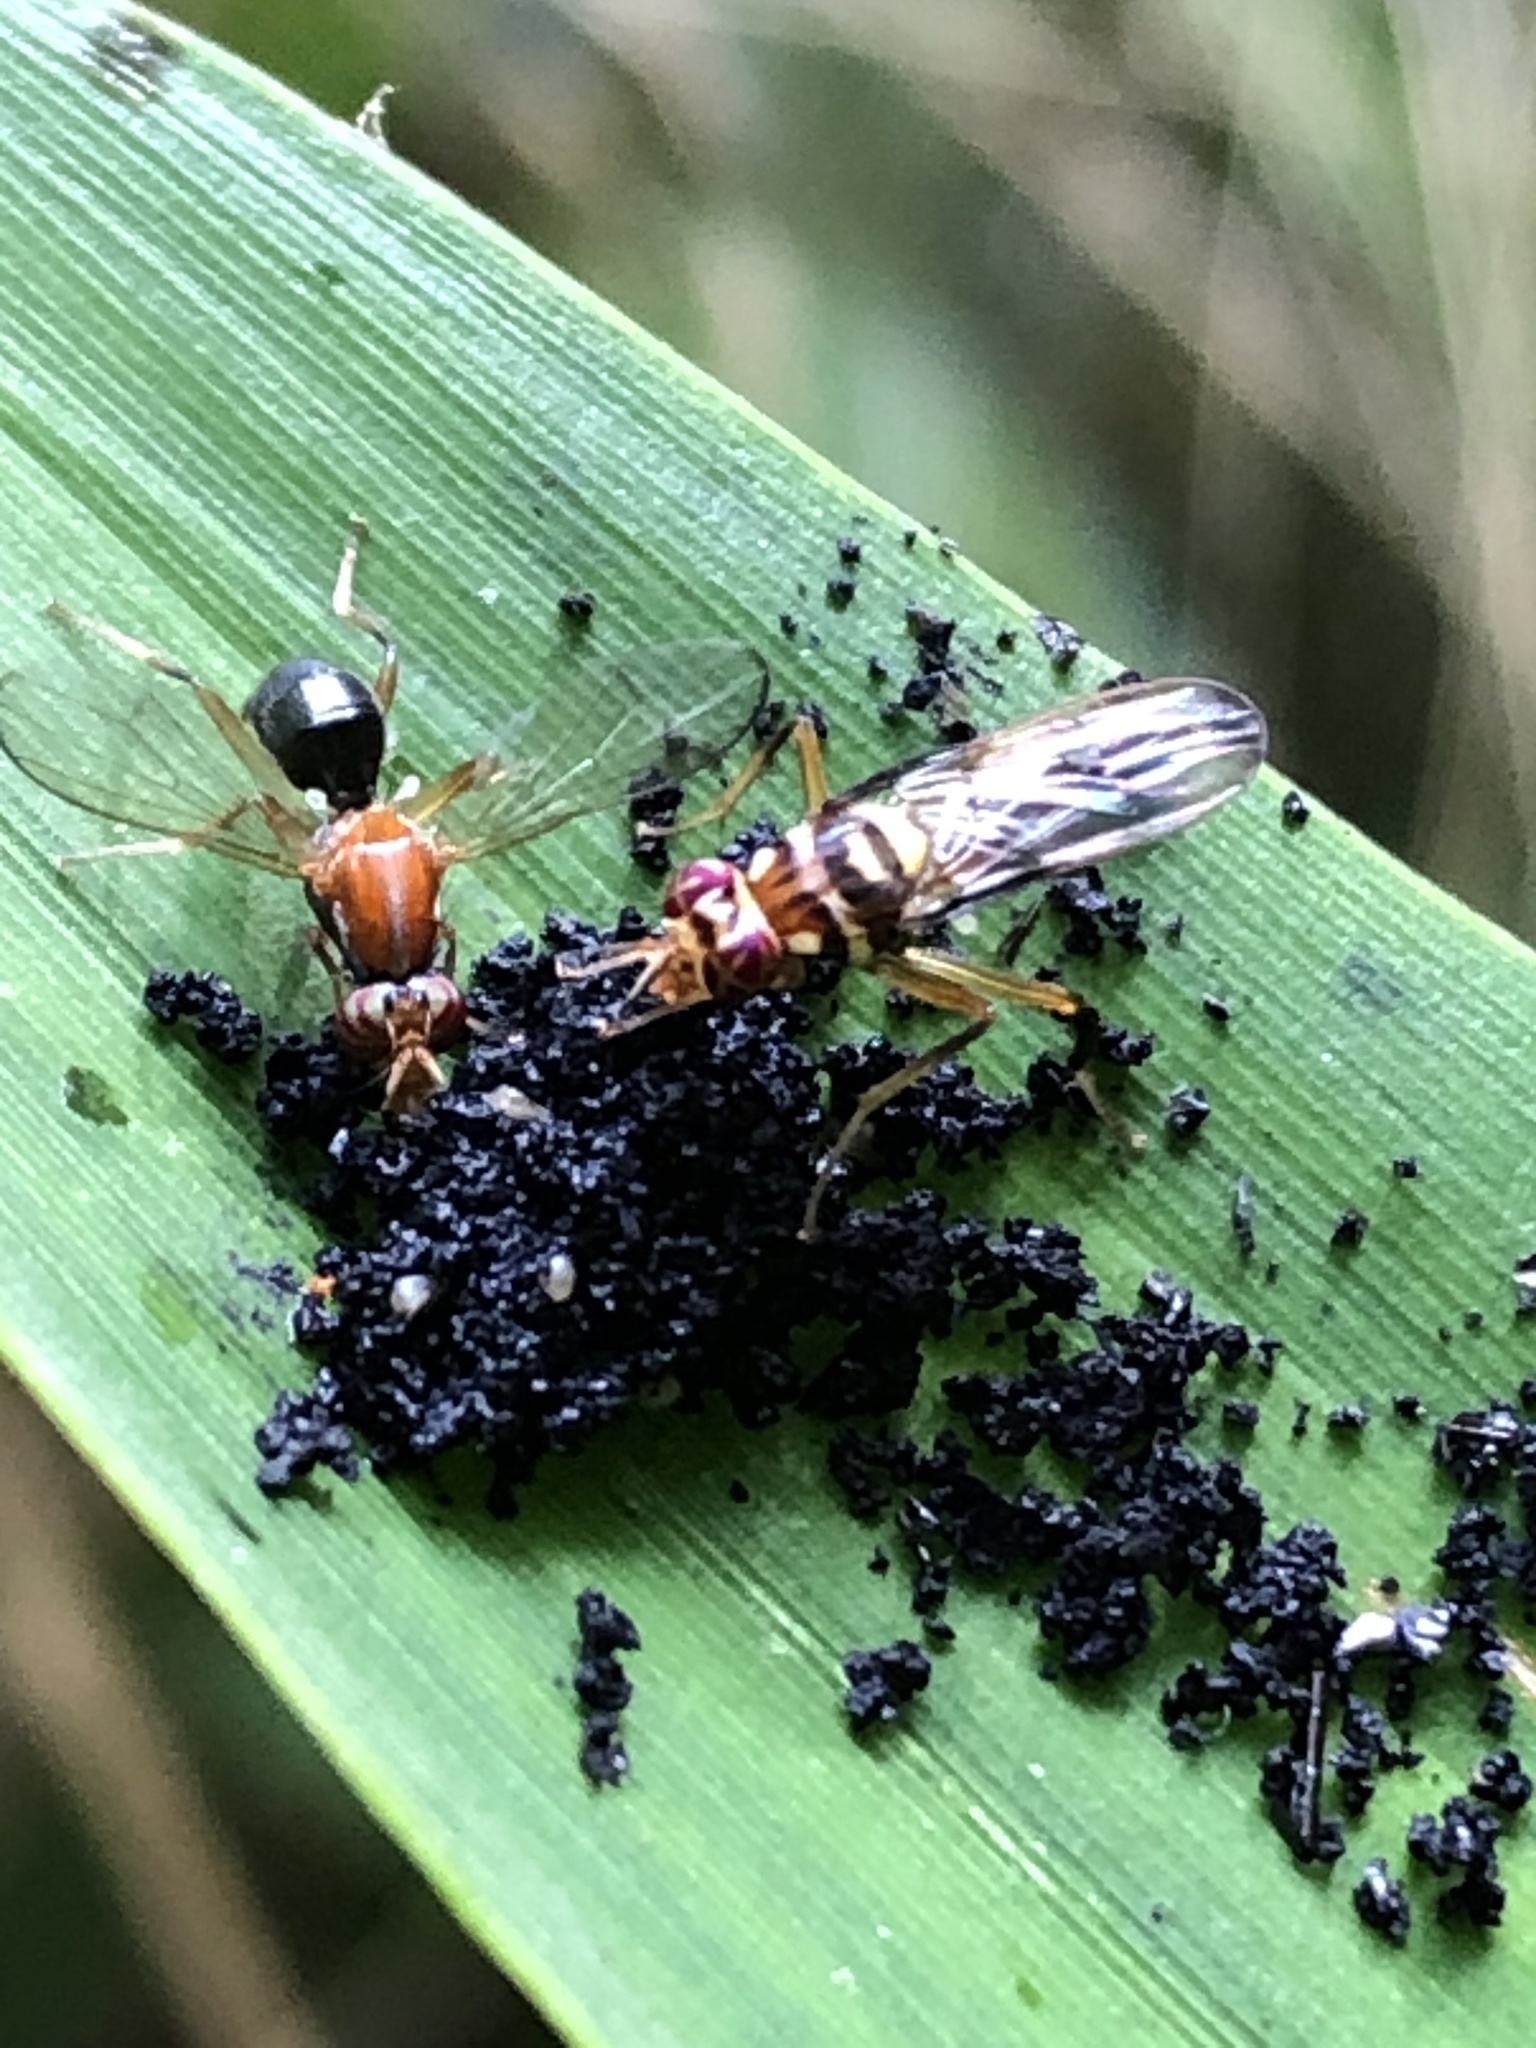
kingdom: Animalia
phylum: Arthropoda
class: Insecta
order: Diptera
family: Richardiidae
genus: Poecilomyia
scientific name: Poecilomyia longicornis
